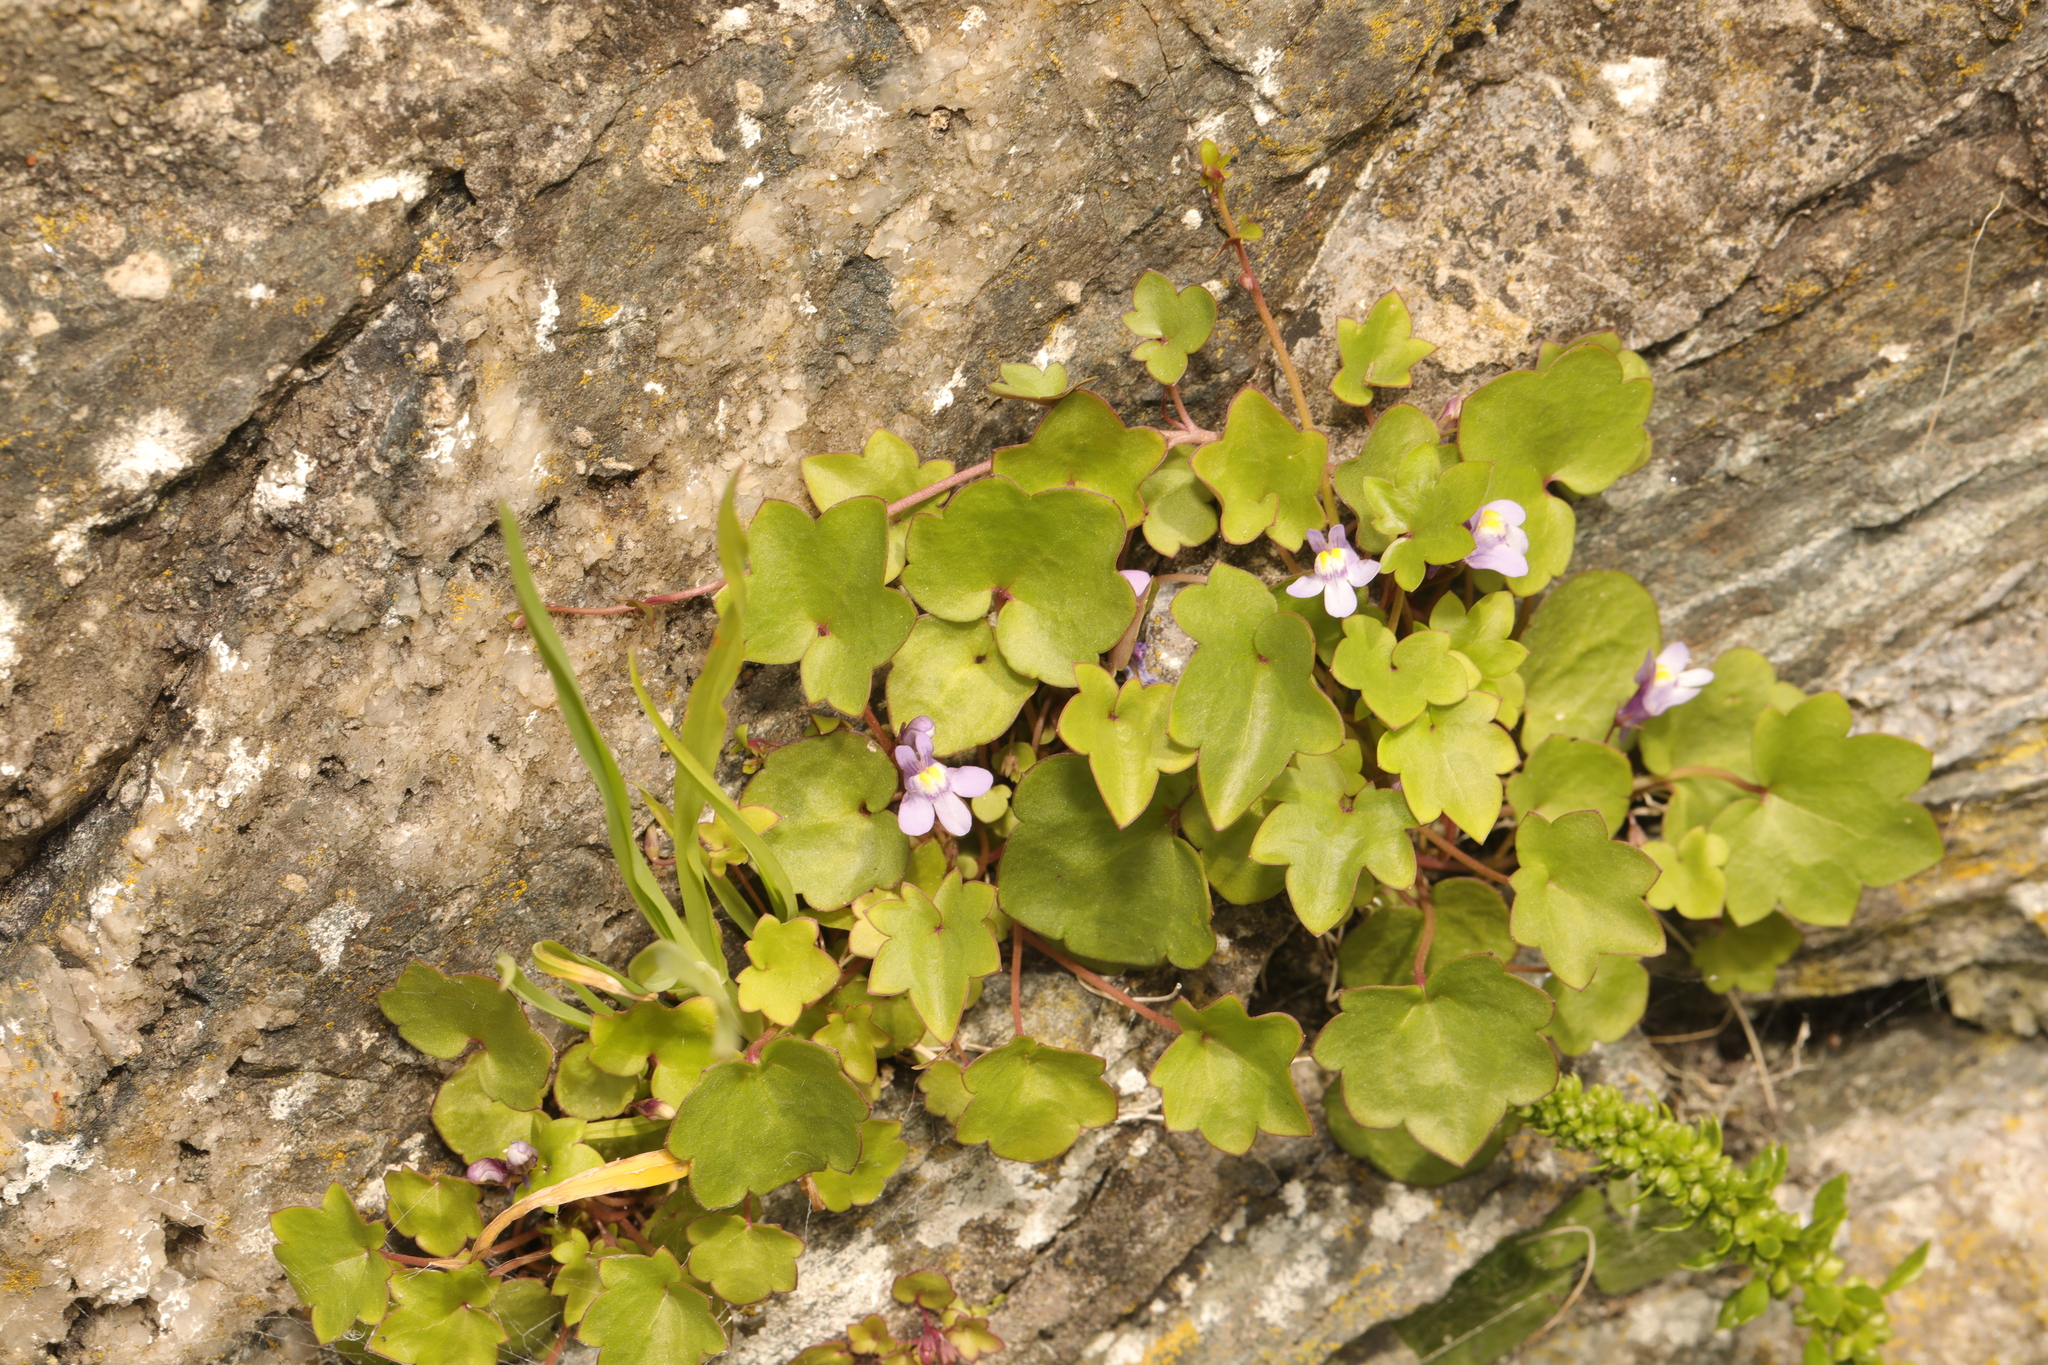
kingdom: Plantae
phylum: Tracheophyta
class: Magnoliopsida
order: Lamiales
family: Plantaginaceae
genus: Cymbalaria
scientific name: Cymbalaria muralis
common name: Ivy-leaved toadflax
